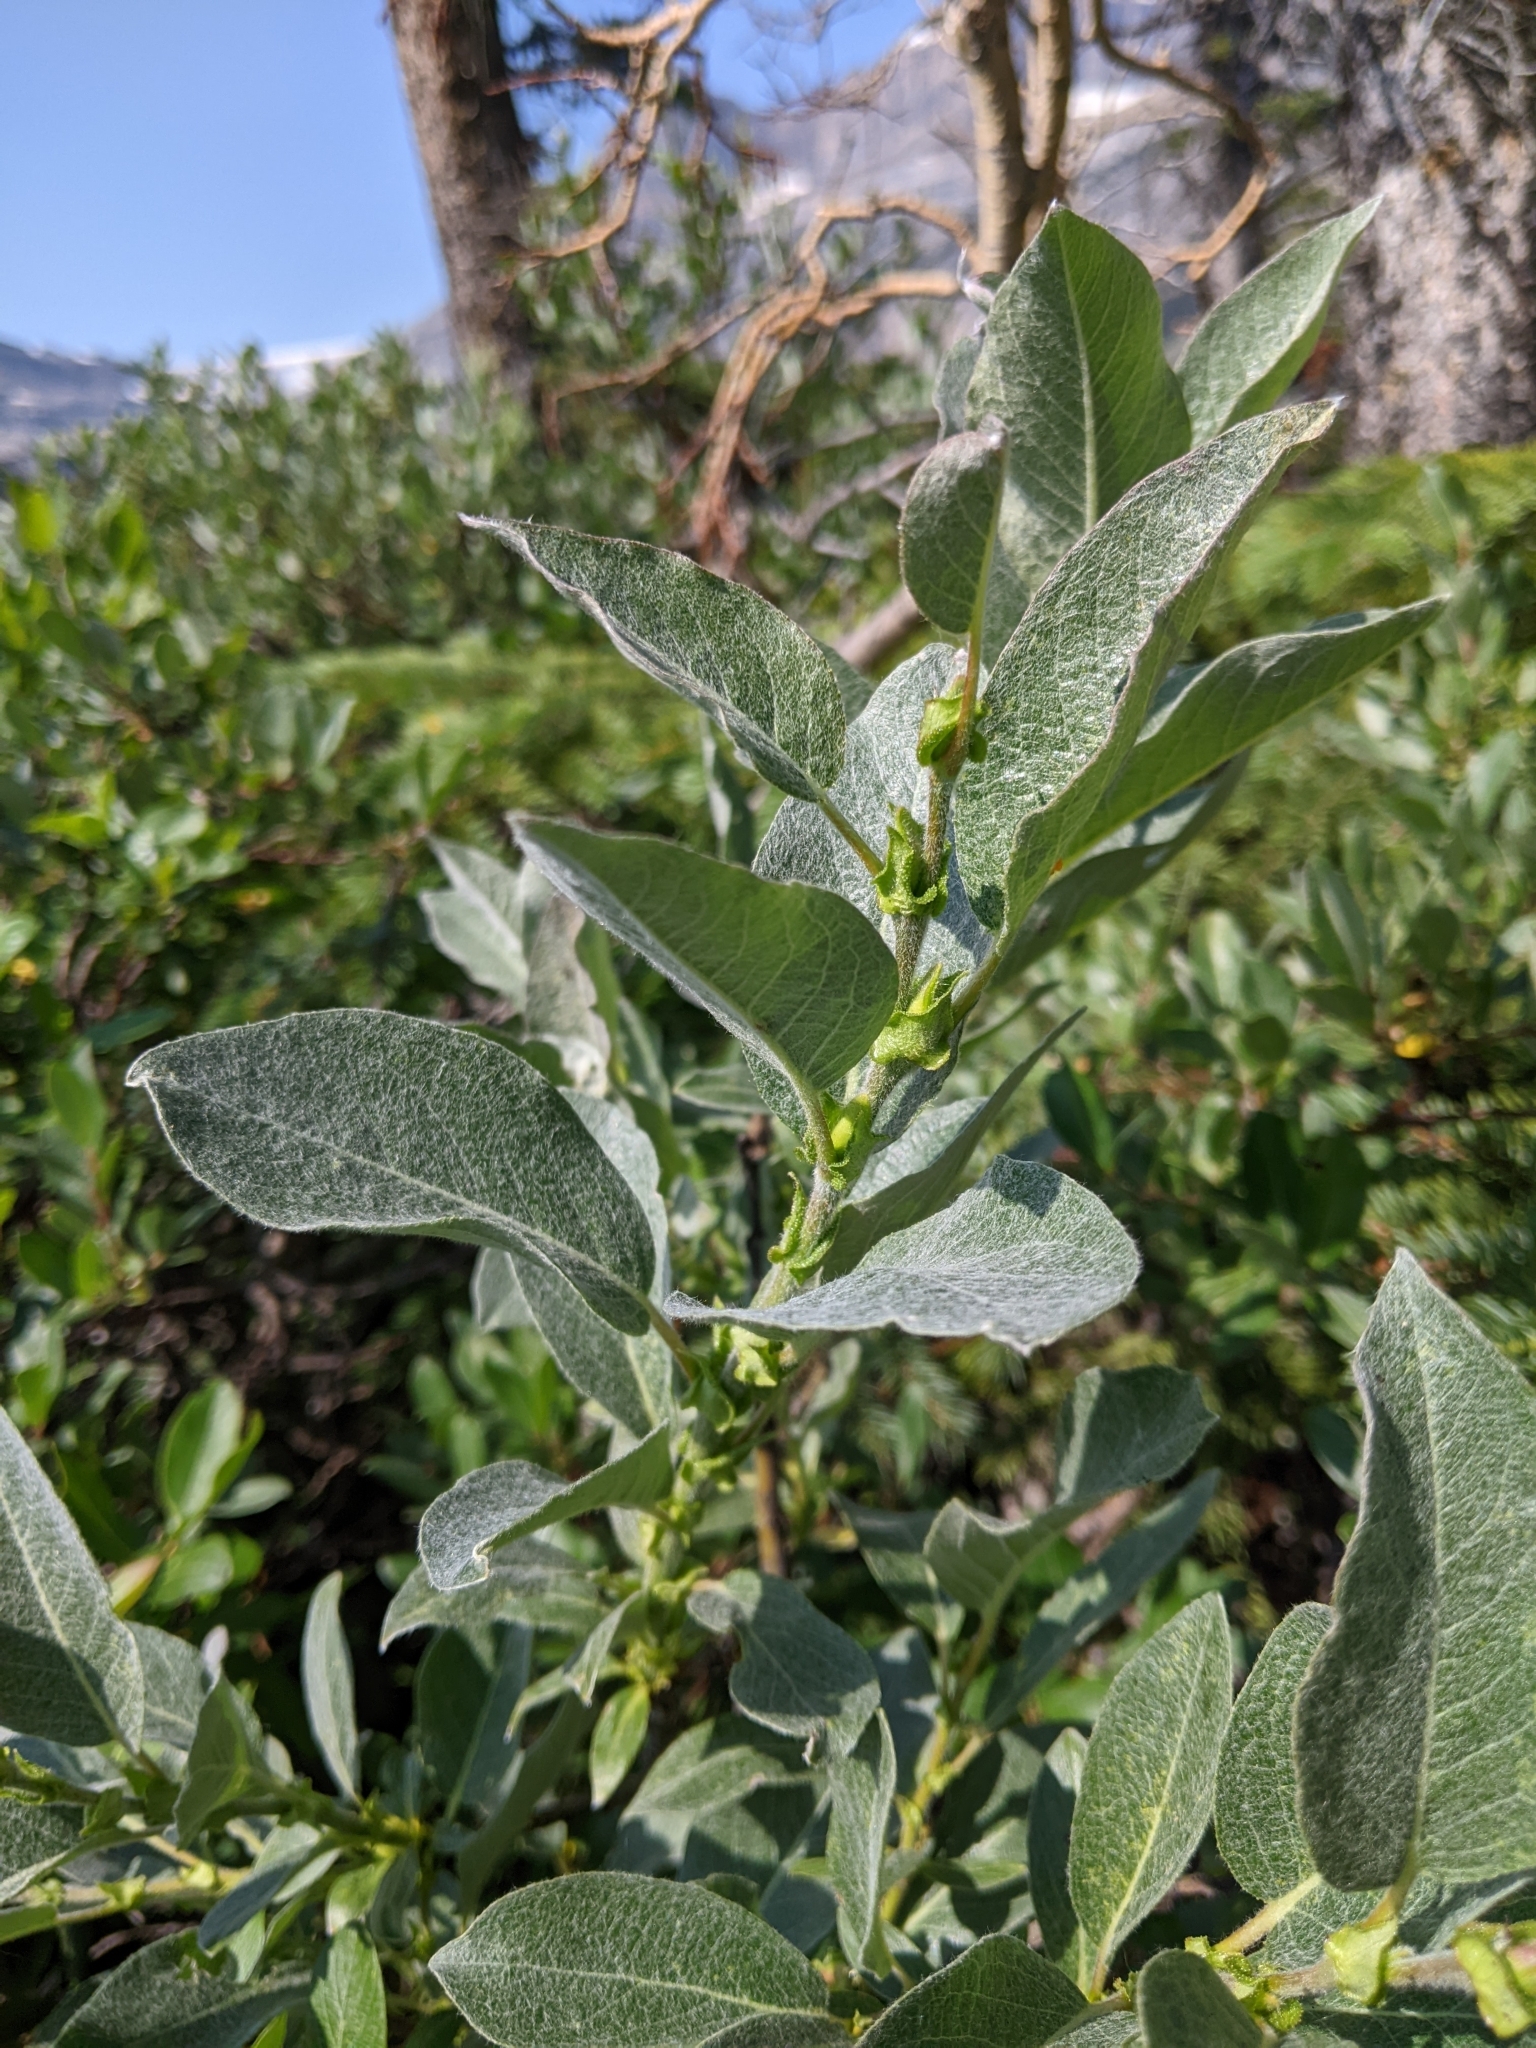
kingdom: Plantae
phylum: Tracheophyta
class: Magnoliopsida
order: Malpighiales
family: Salicaceae
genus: Salix
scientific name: Salix barrattiana
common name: Barratt's willow
